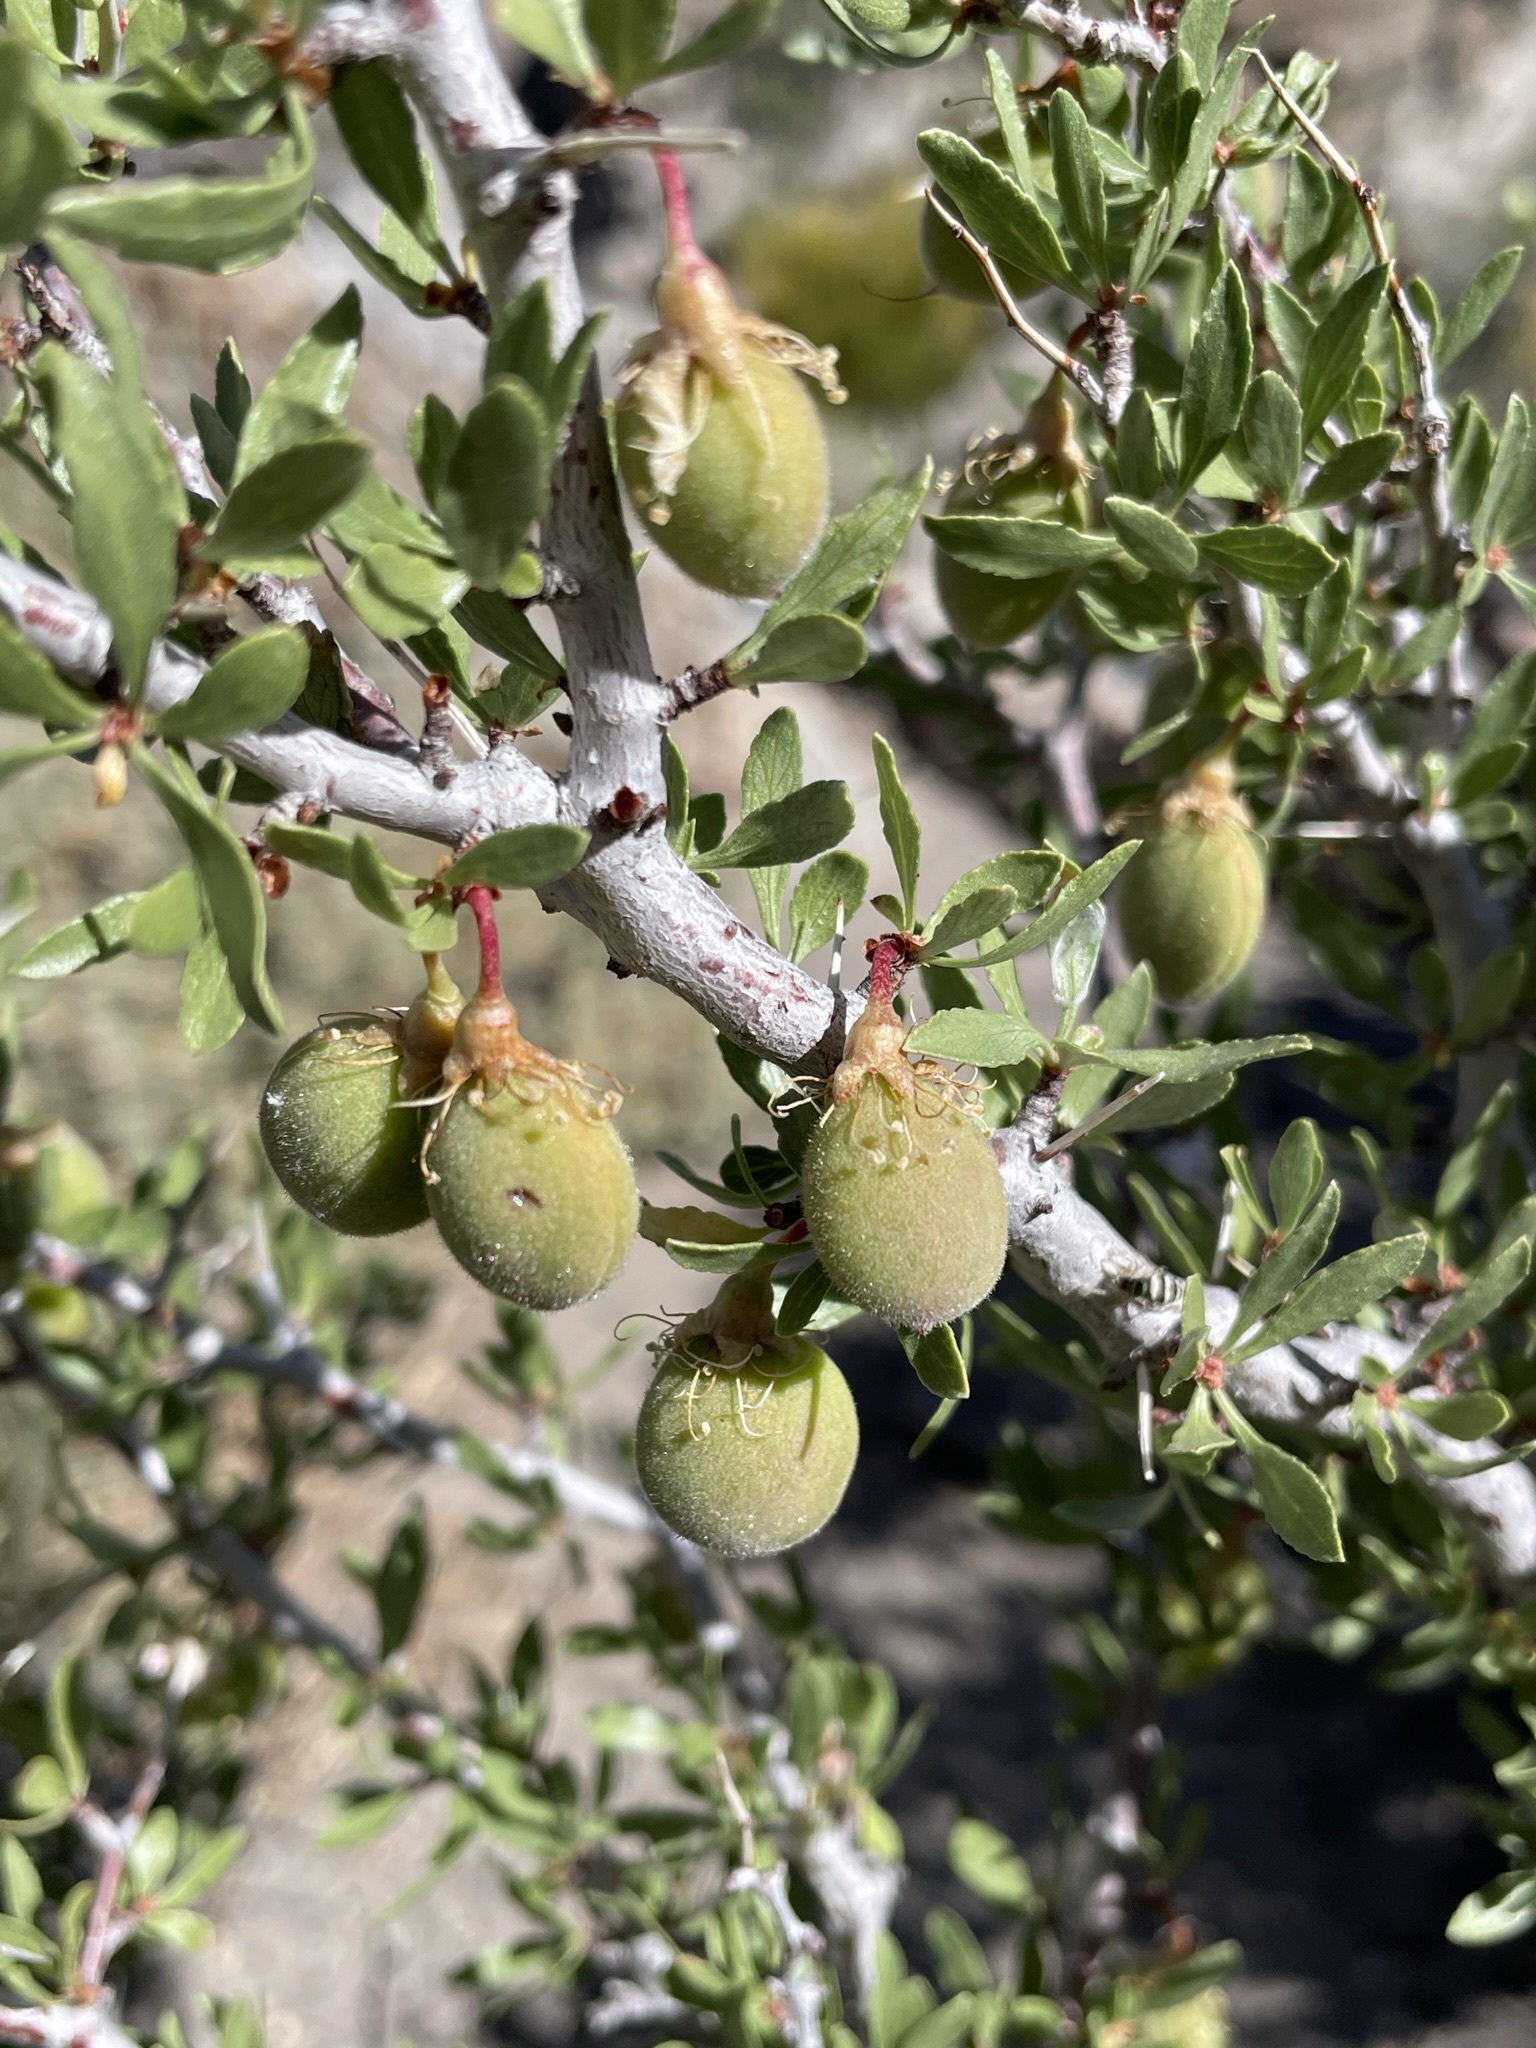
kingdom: Plantae
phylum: Tracheophyta
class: Magnoliopsida
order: Rosales
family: Rosaceae
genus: Prunus
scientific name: Prunus andersonii
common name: Desert peach
